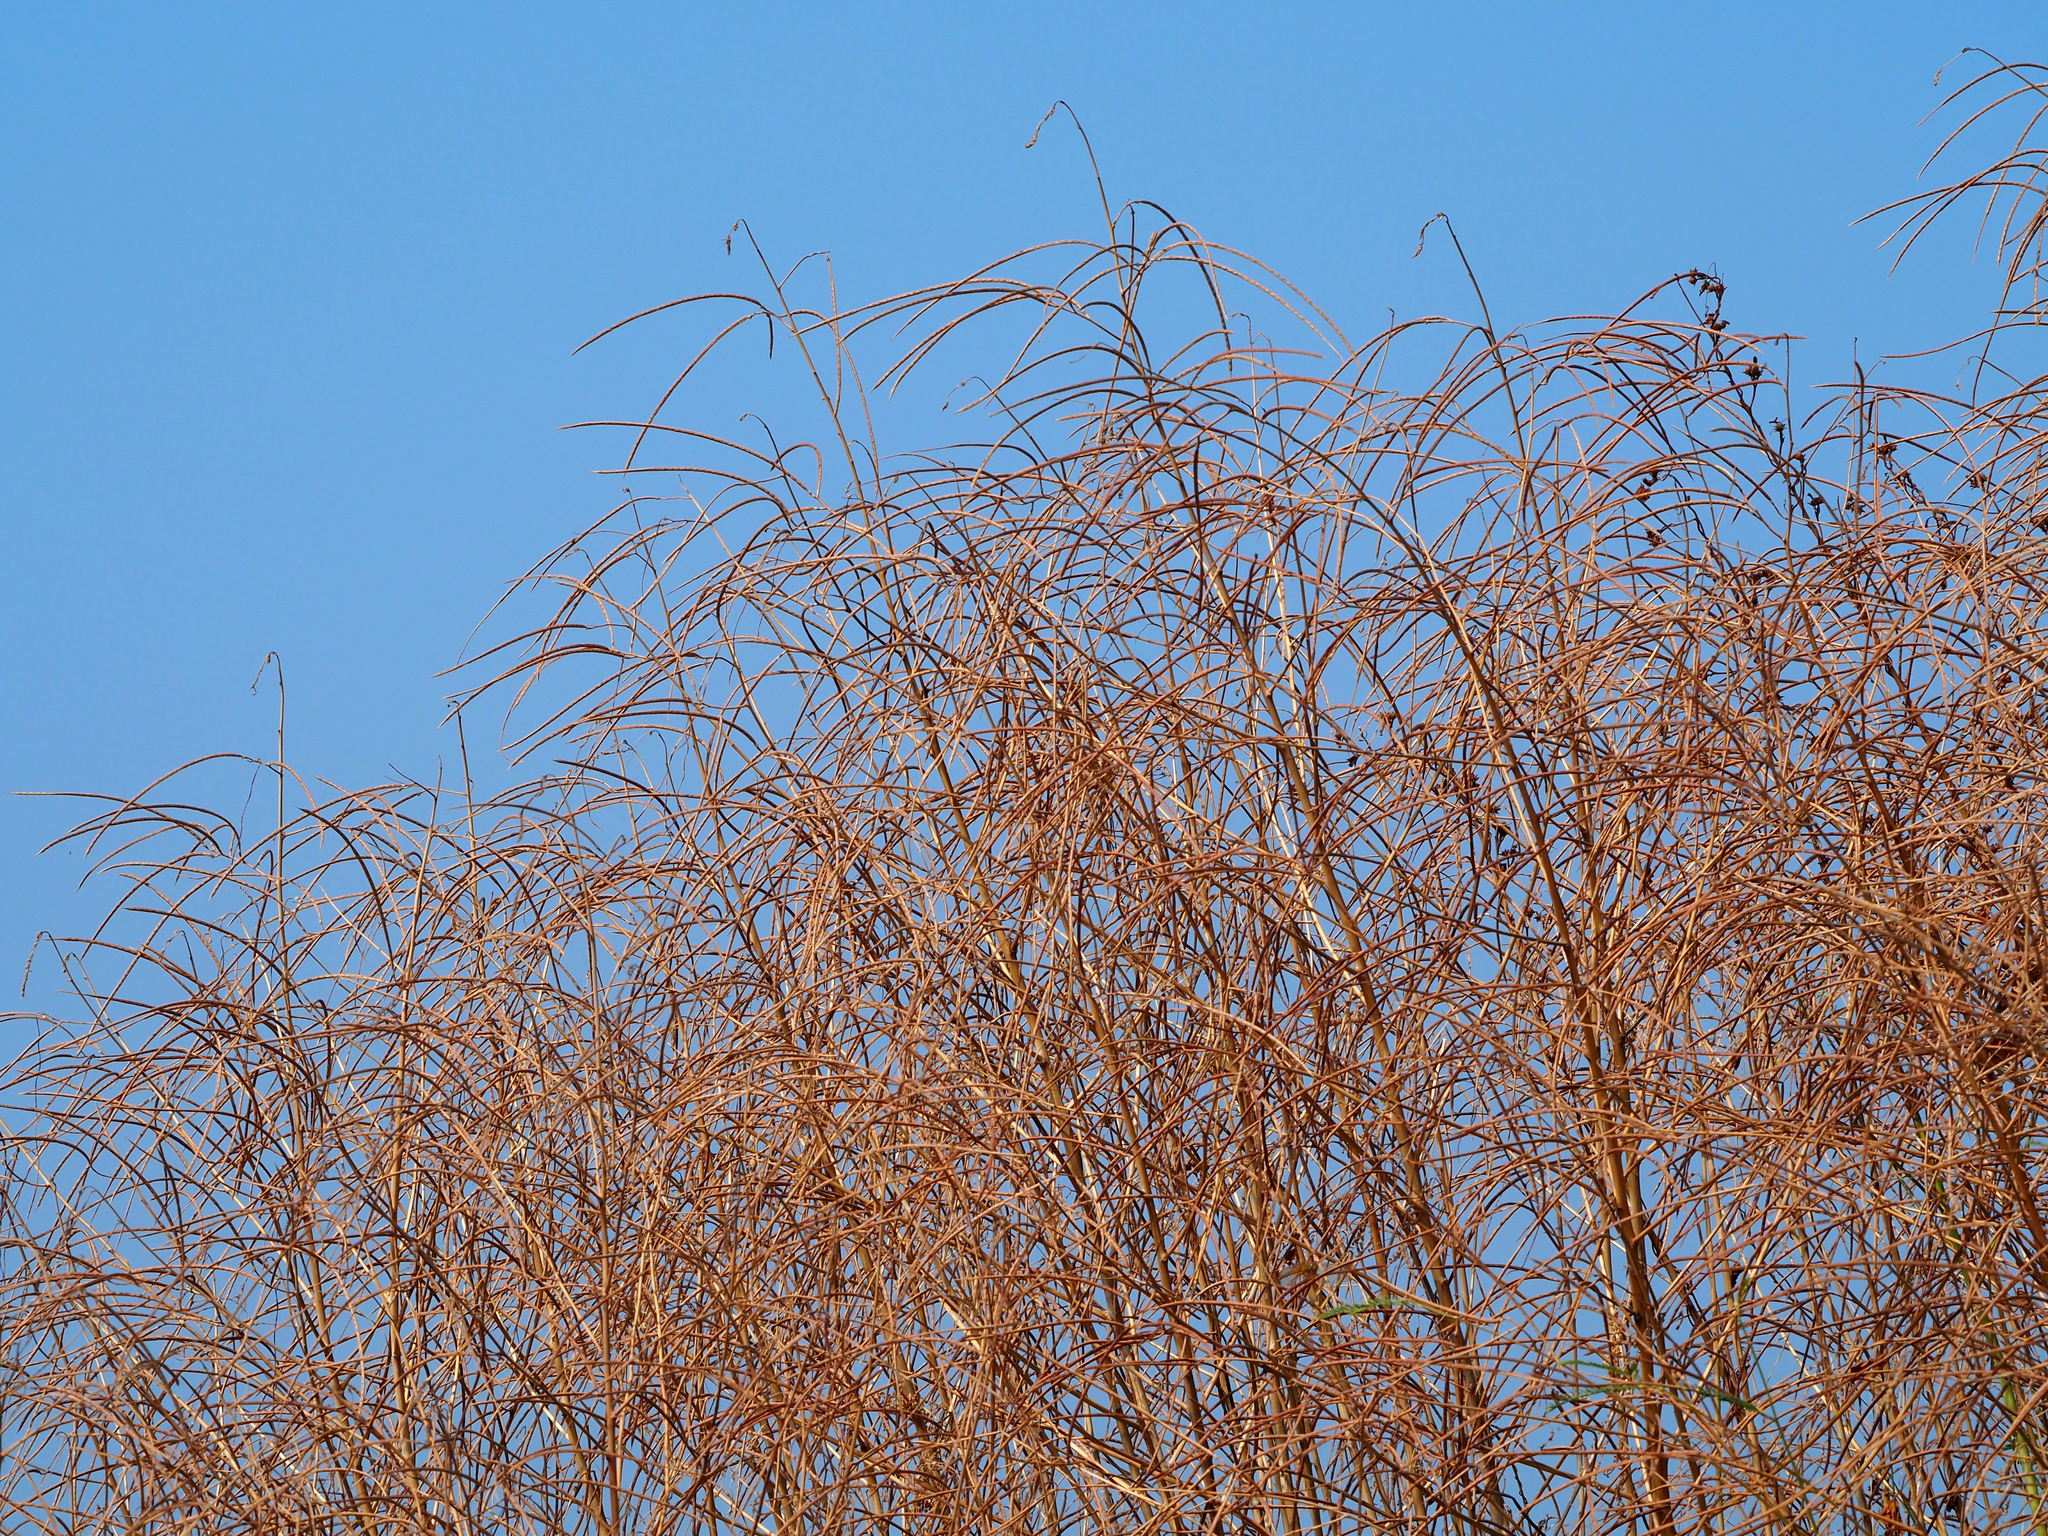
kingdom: Plantae
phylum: Tracheophyta
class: Magnoliopsida
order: Fabales
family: Fabaceae
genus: Sesbania
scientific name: Sesbania cannabina
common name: Canicha
